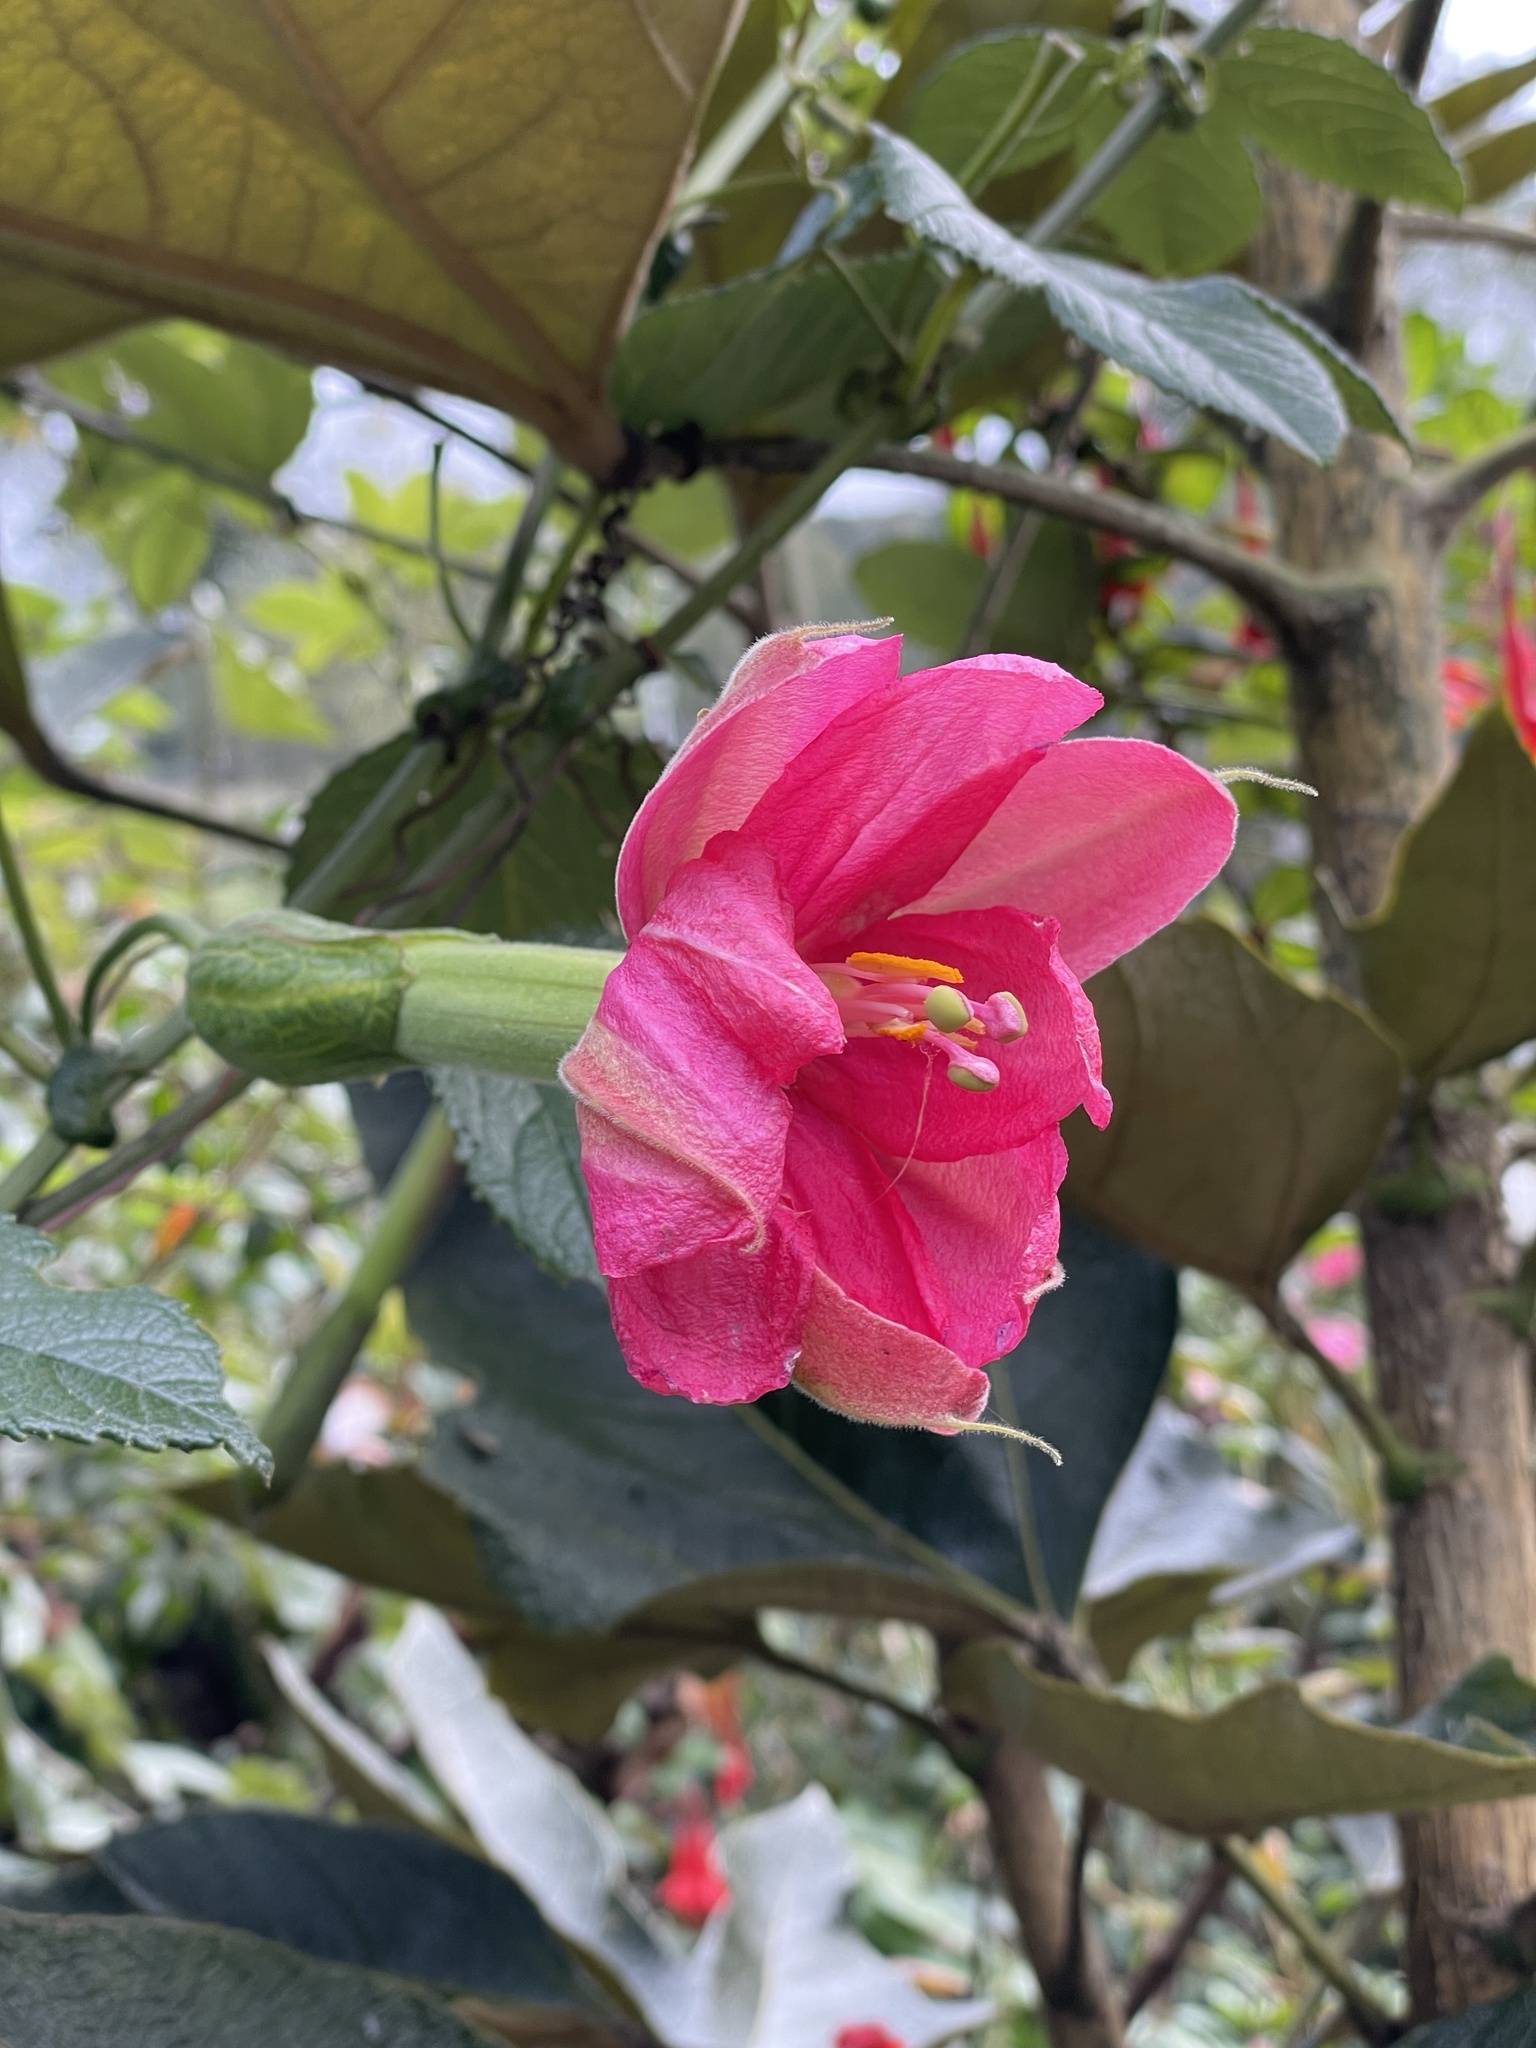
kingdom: Plantae
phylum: Tracheophyta
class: Magnoliopsida
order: Malpighiales
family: Passifloraceae
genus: Passiflora
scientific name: Passiflora mixta
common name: Passion flower
